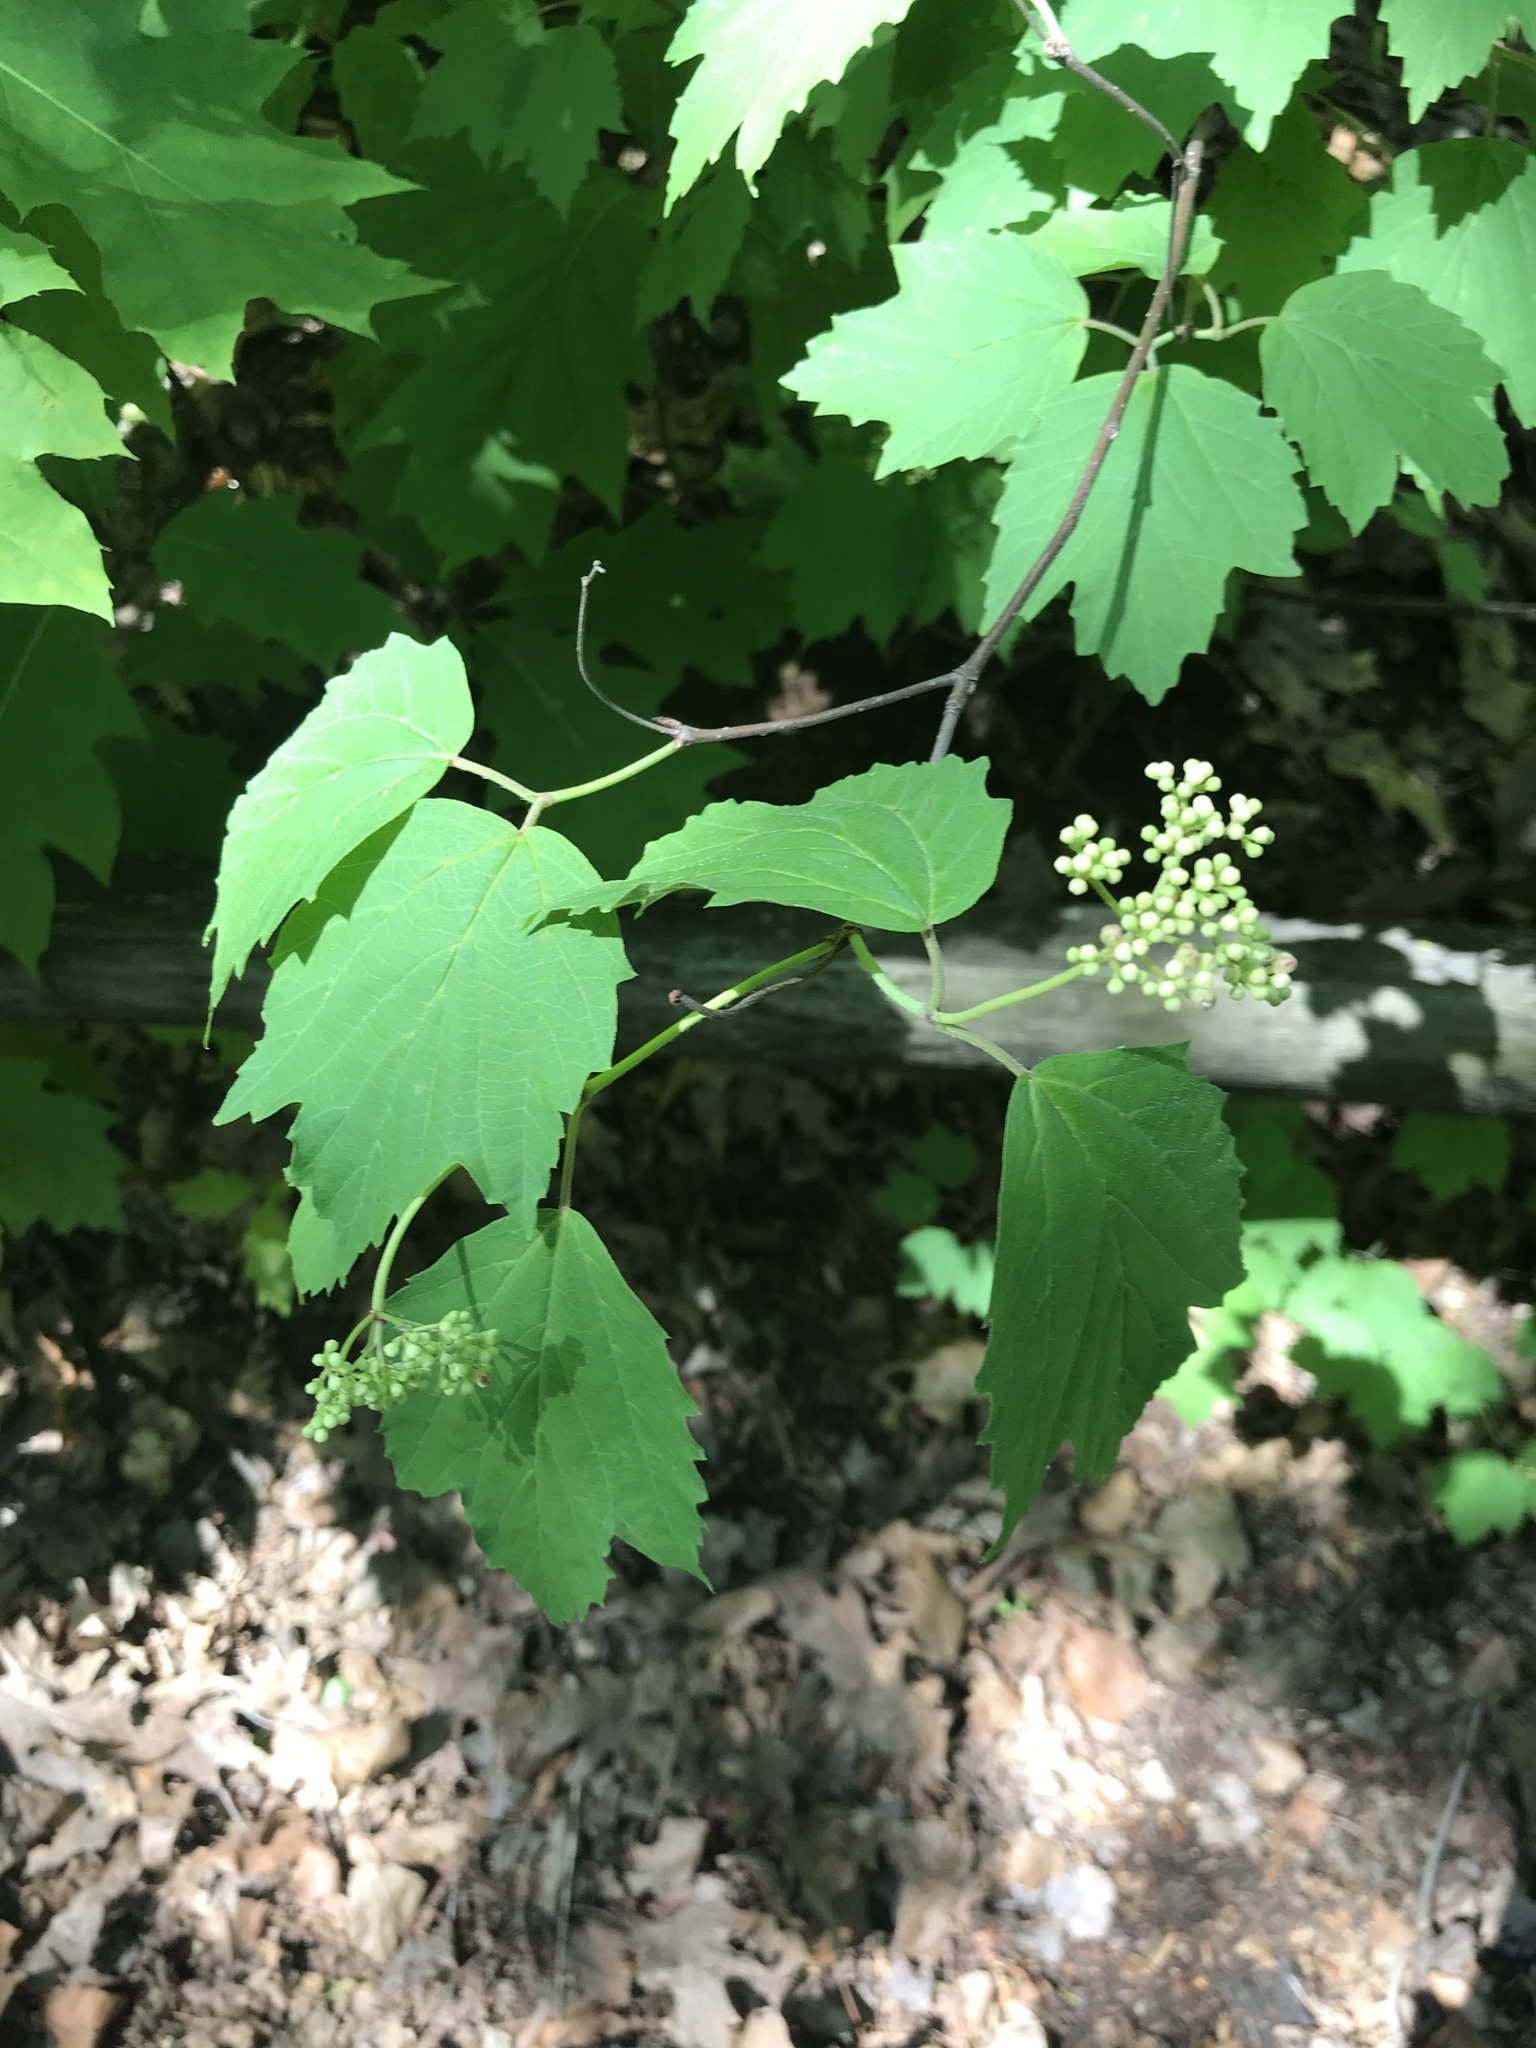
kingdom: Plantae
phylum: Tracheophyta
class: Magnoliopsida
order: Dipsacales
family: Viburnaceae
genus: Viburnum
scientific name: Viburnum acerifolium
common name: Dockmackie
